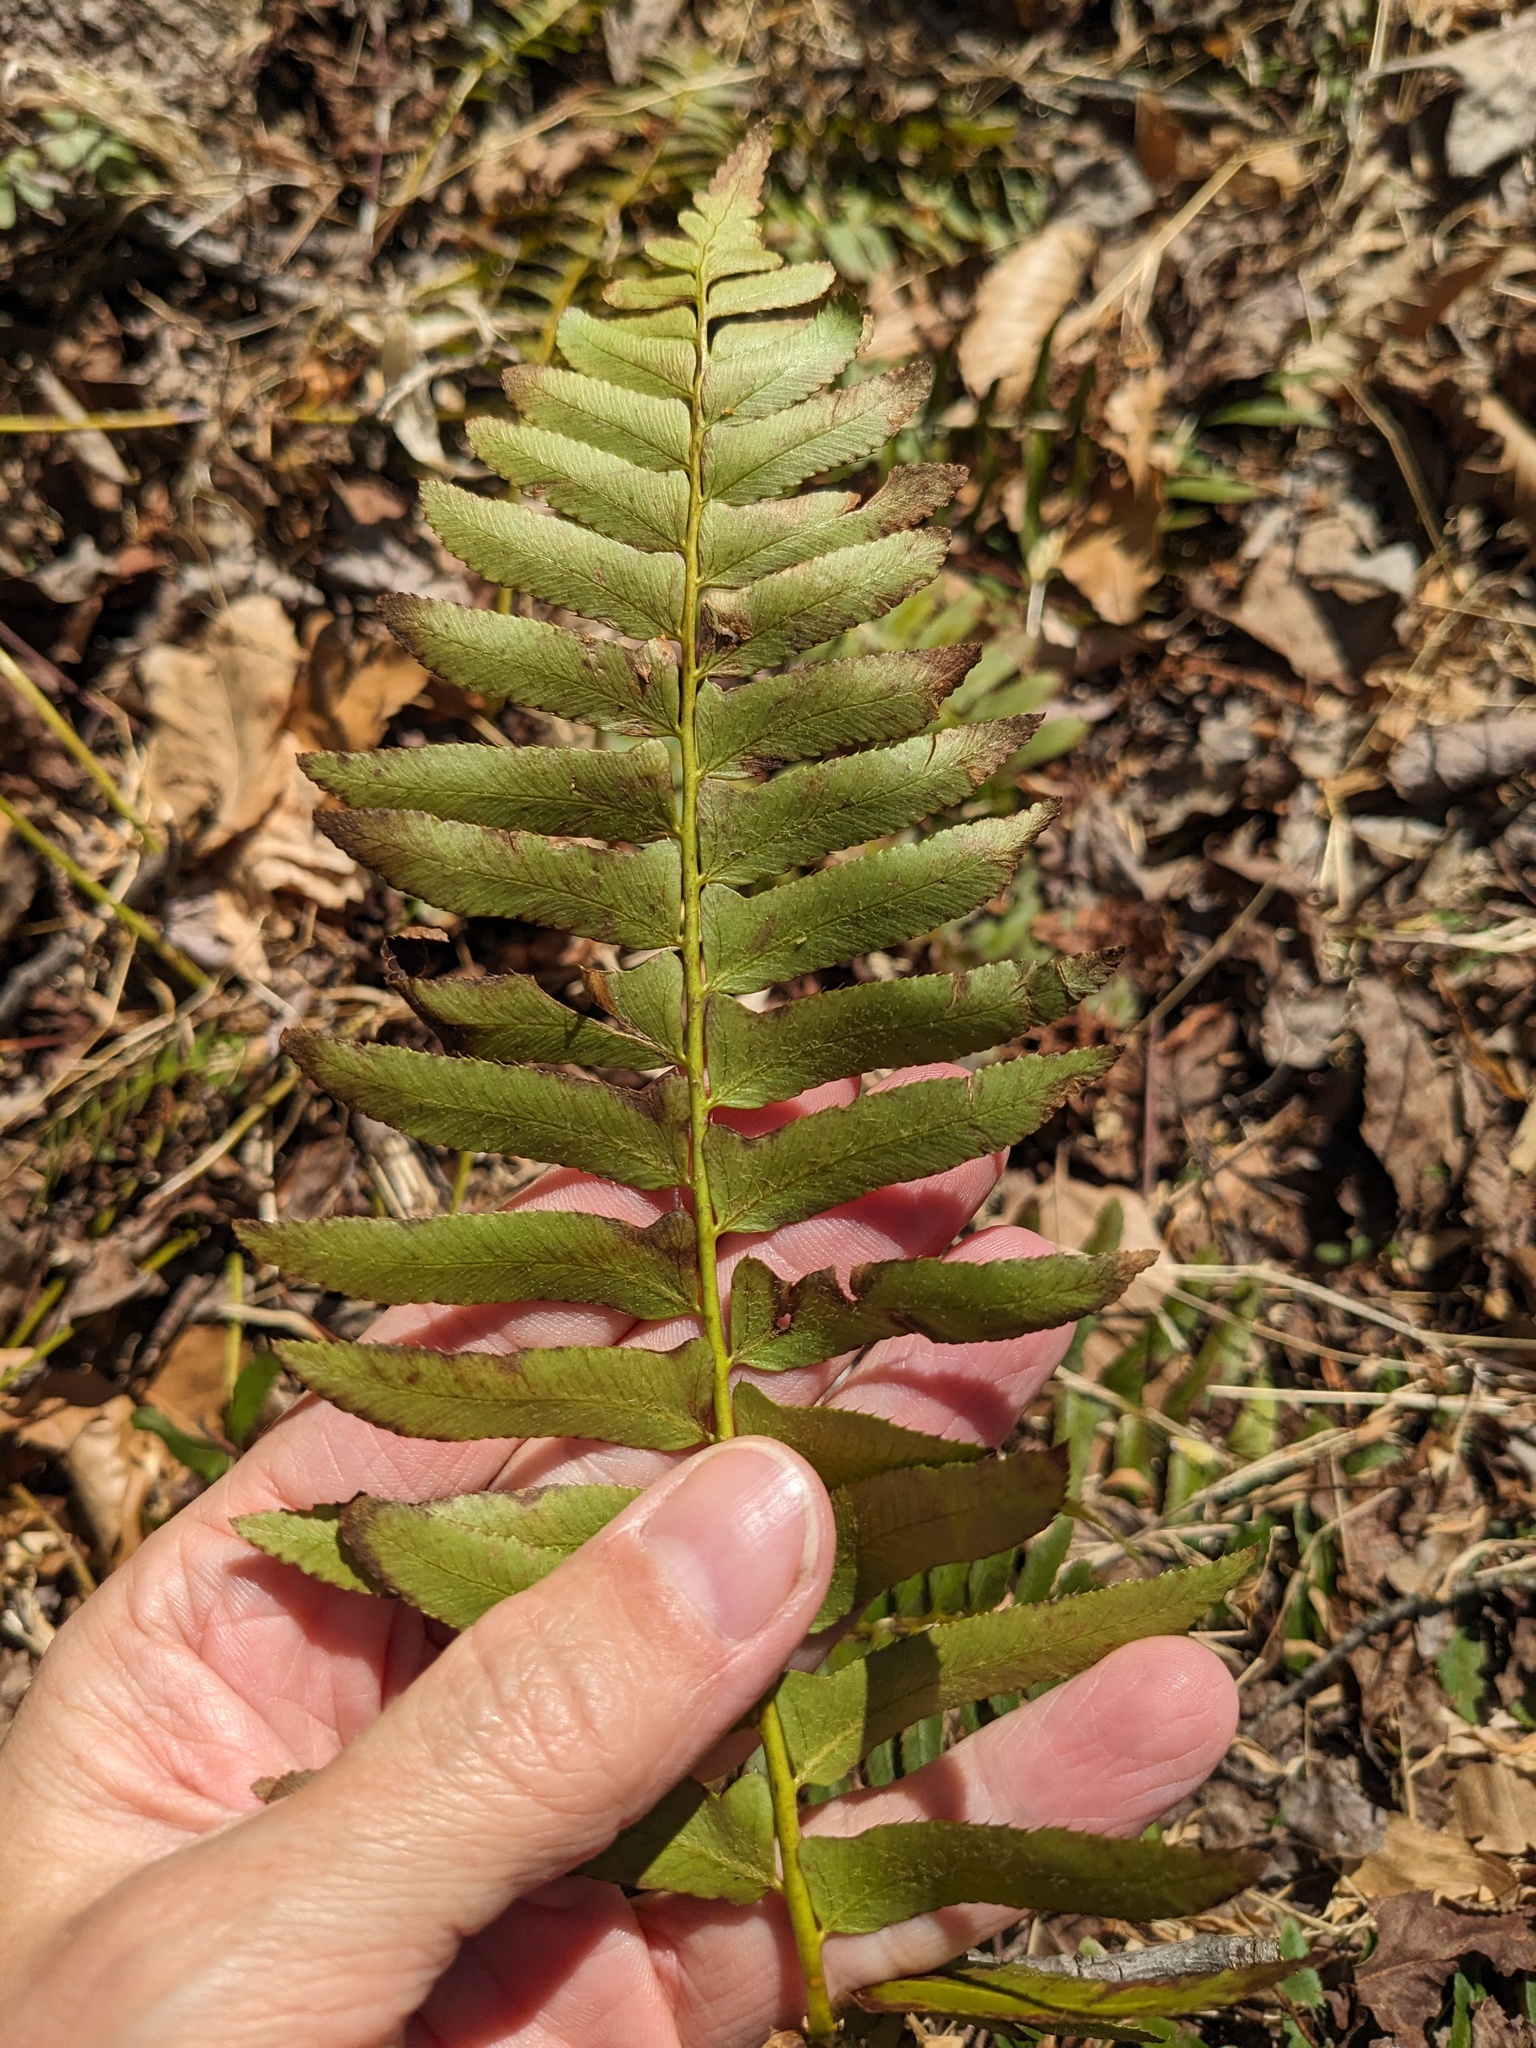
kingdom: Plantae
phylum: Tracheophyta
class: Polypodiopsida
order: Polypodiales
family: Dryopteridaceae
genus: Polystichum
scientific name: Polystichum acrostichoides
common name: Christmas fern
